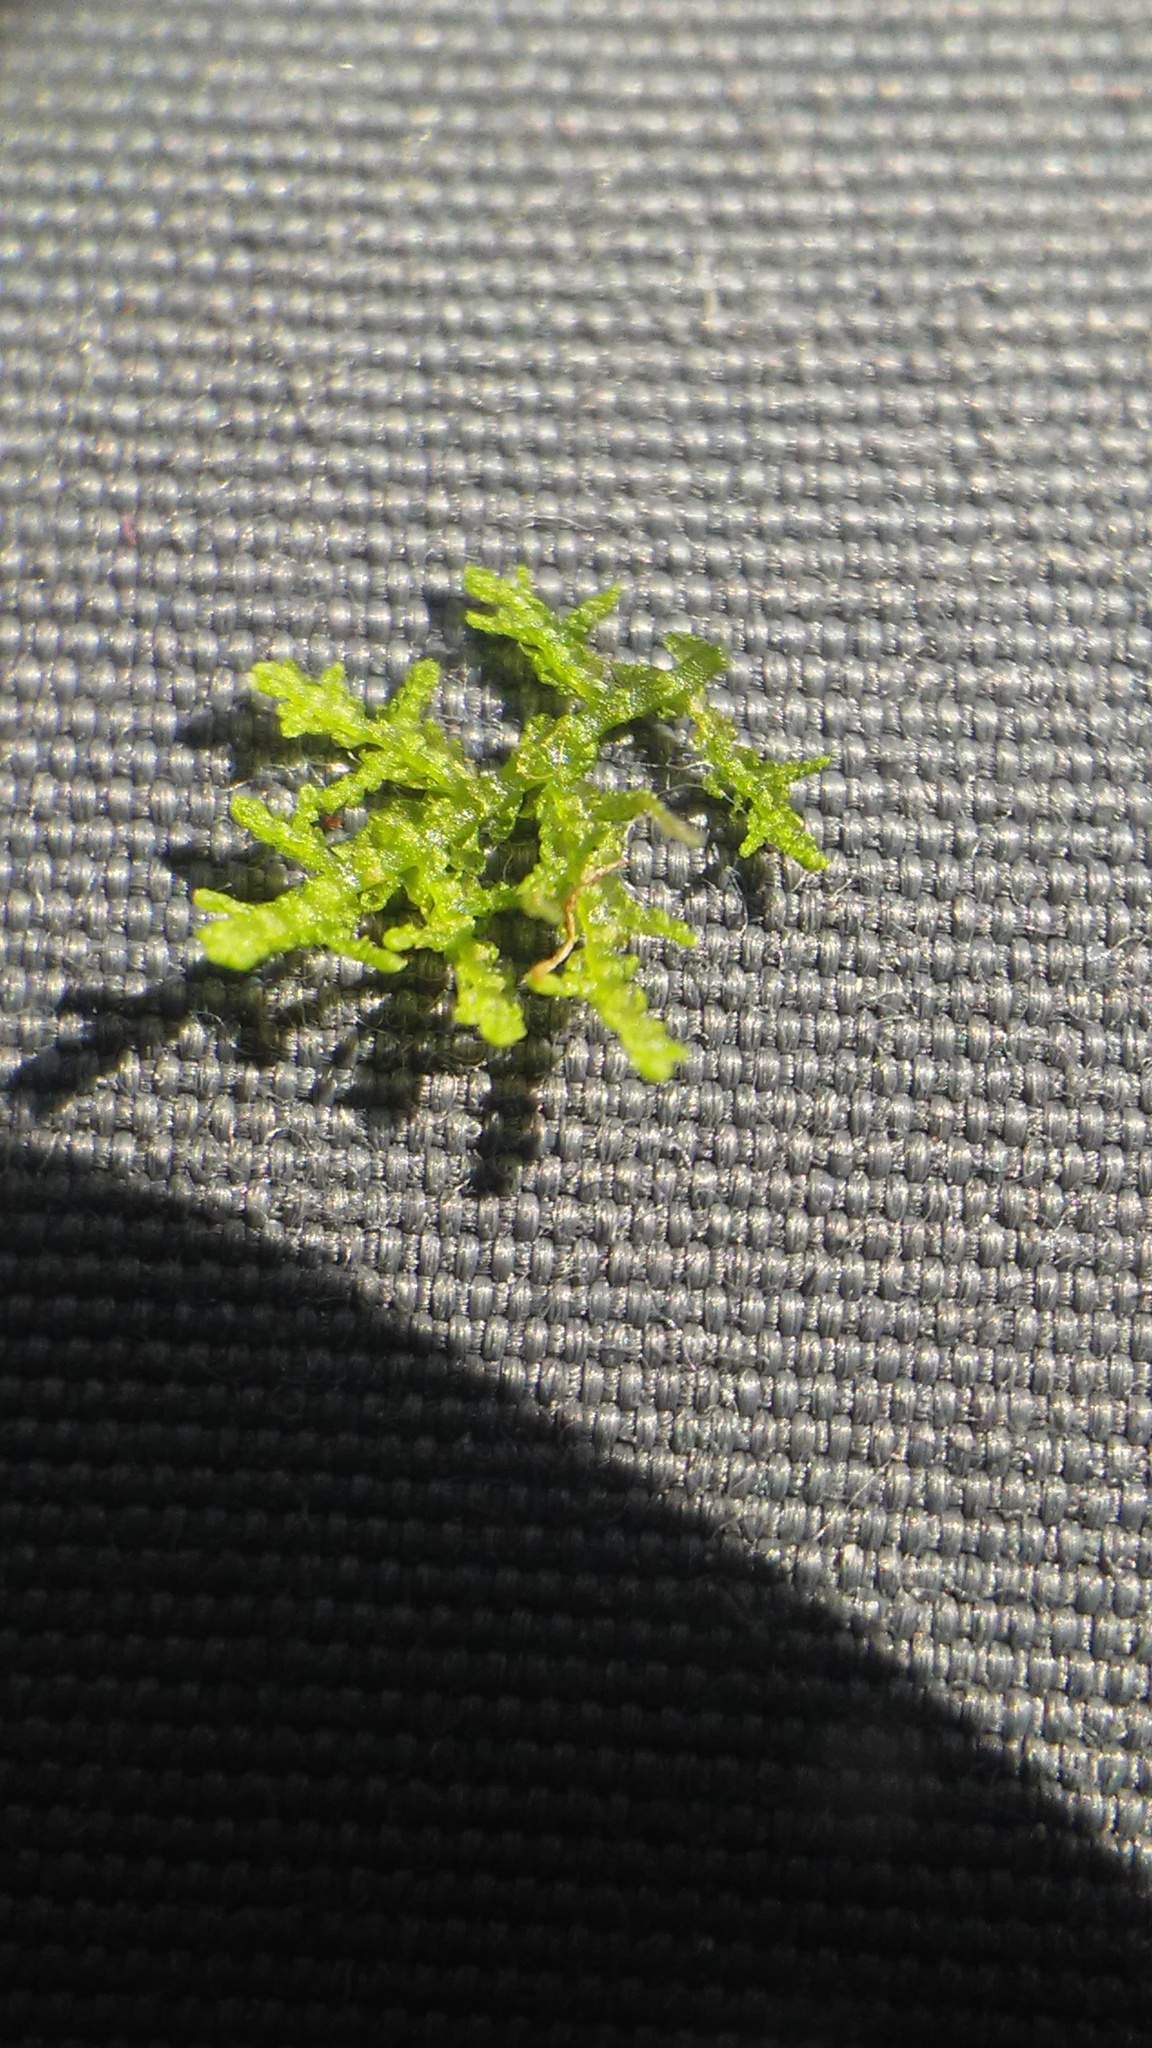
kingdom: Plantae
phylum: Marchantiophyta
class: Jungermanniopsida
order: Jungermanniales
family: Lepidoziaceae
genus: Lepidozia
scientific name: Lepidozia reptans
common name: Creeping fingerwort
